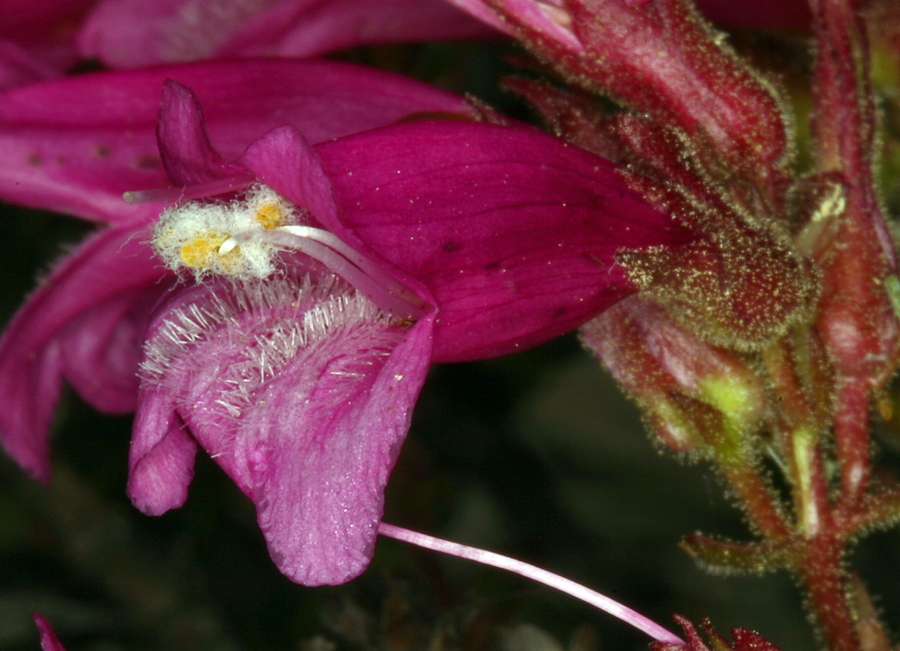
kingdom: Plantae
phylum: Tracheophyta
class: Magnoliopsida
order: Lamiales
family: Plantaginaceae
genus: Penstemon
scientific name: Penstemon newberryi
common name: Mountain-pride
